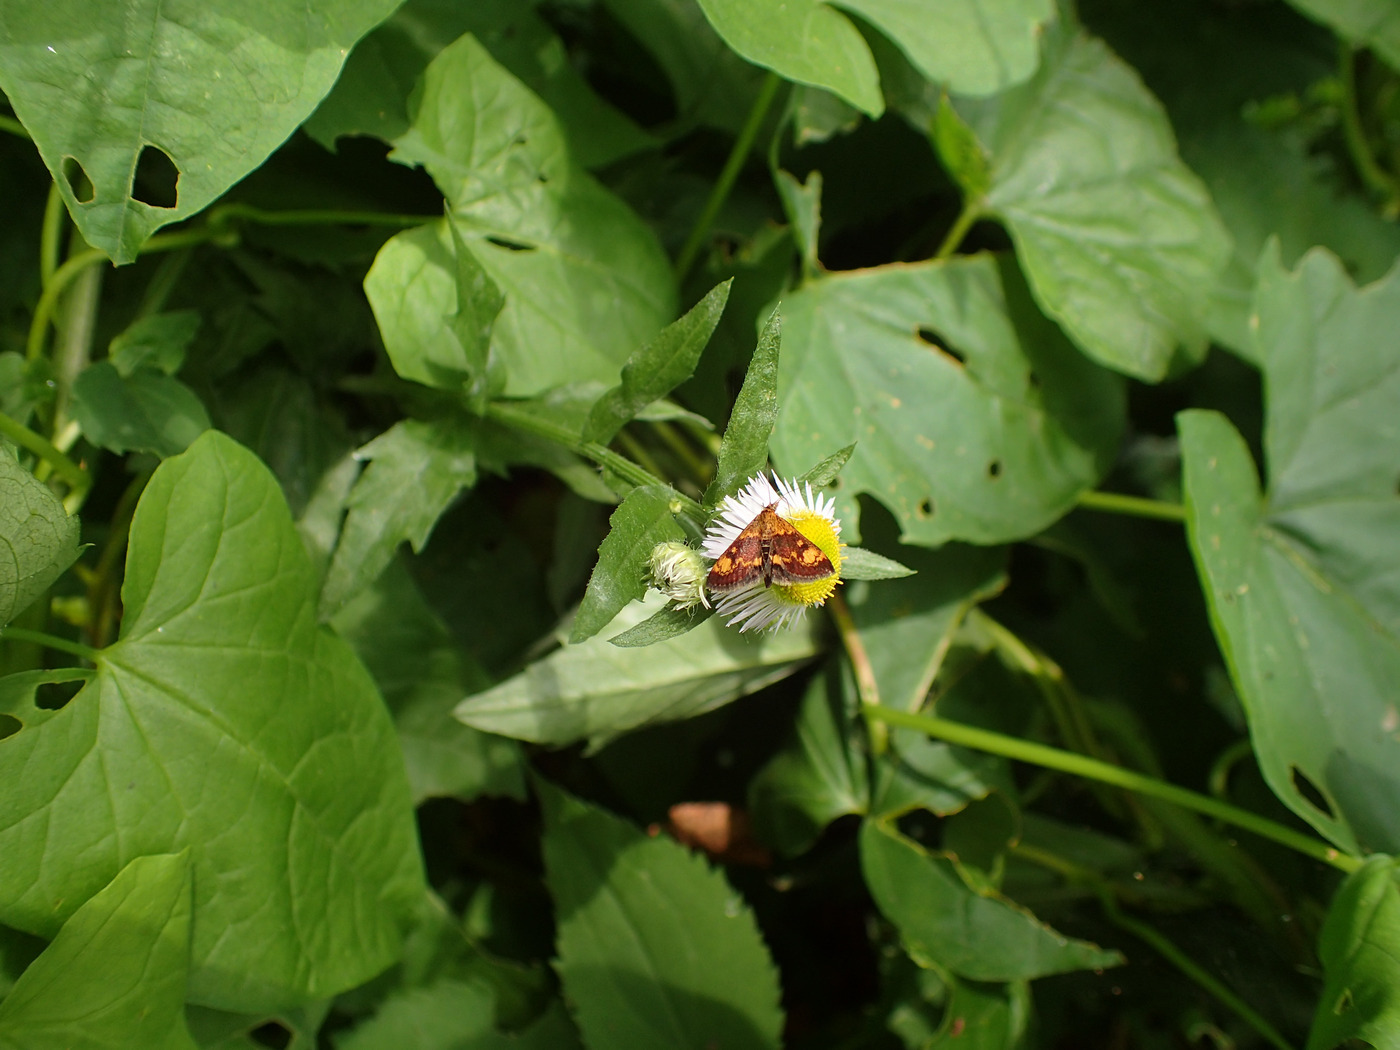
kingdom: Animalia
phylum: Arthropoda
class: Insecta
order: Lepidoptera
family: Crambidae
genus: Pyrausta
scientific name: Pyrausta orphisalis
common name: Orange mint moth
